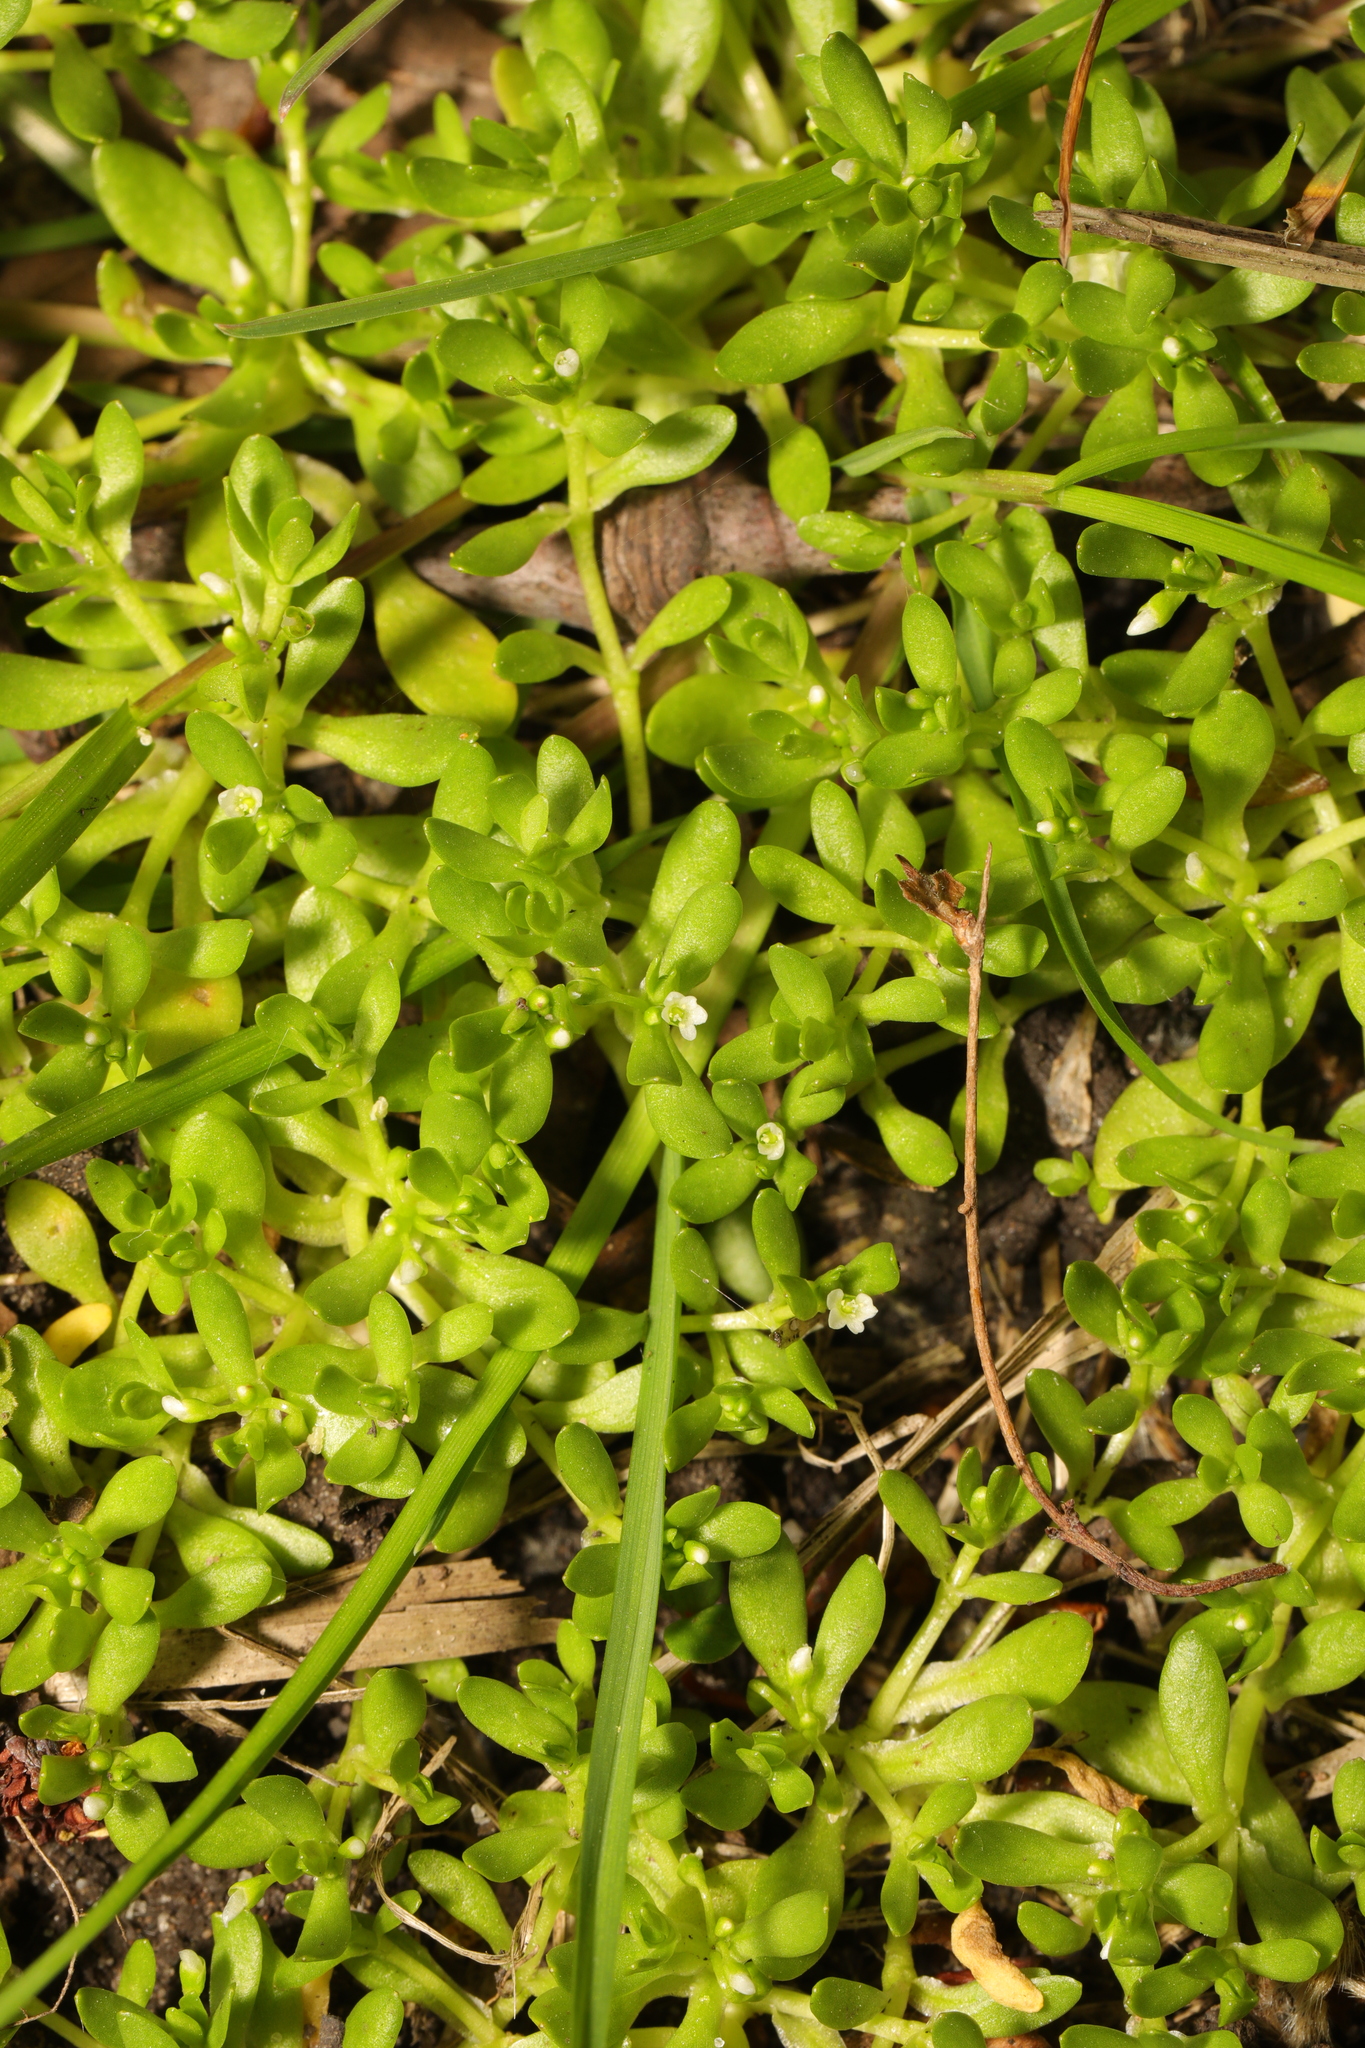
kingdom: Plantae
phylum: Tracheophyta
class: Magnoliopsida
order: Caryophyllales
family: Montiaceae
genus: Montia
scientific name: Montia fontana
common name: Blinks
